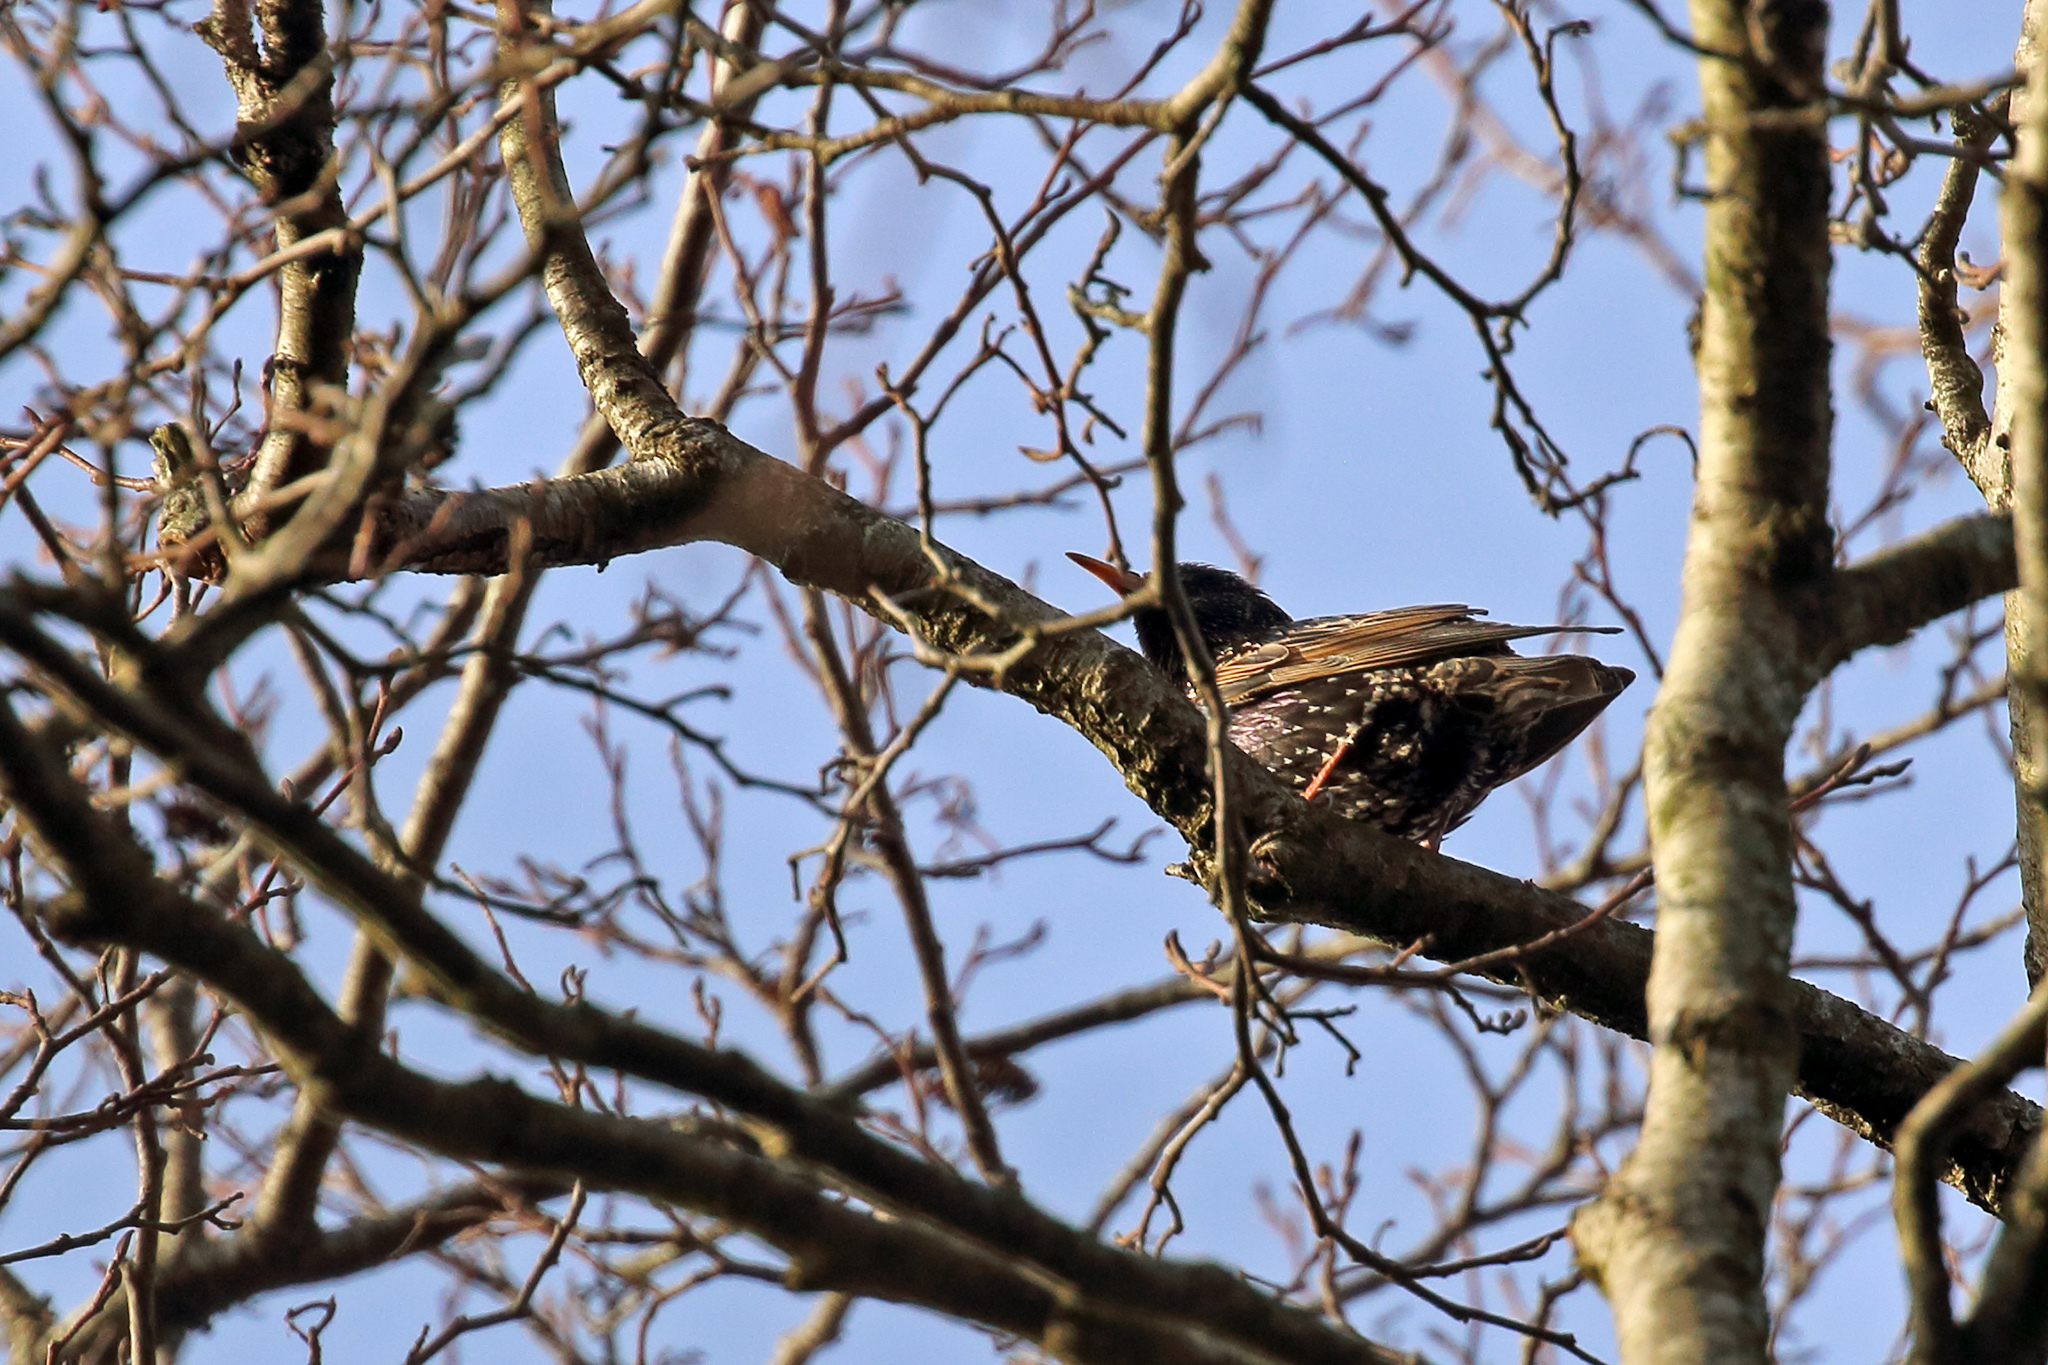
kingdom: Animalia
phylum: Chordata
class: Aves
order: Passeriformes
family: Sturnidae
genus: Sturnus
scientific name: Sturnus vulgaris
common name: Common starling
